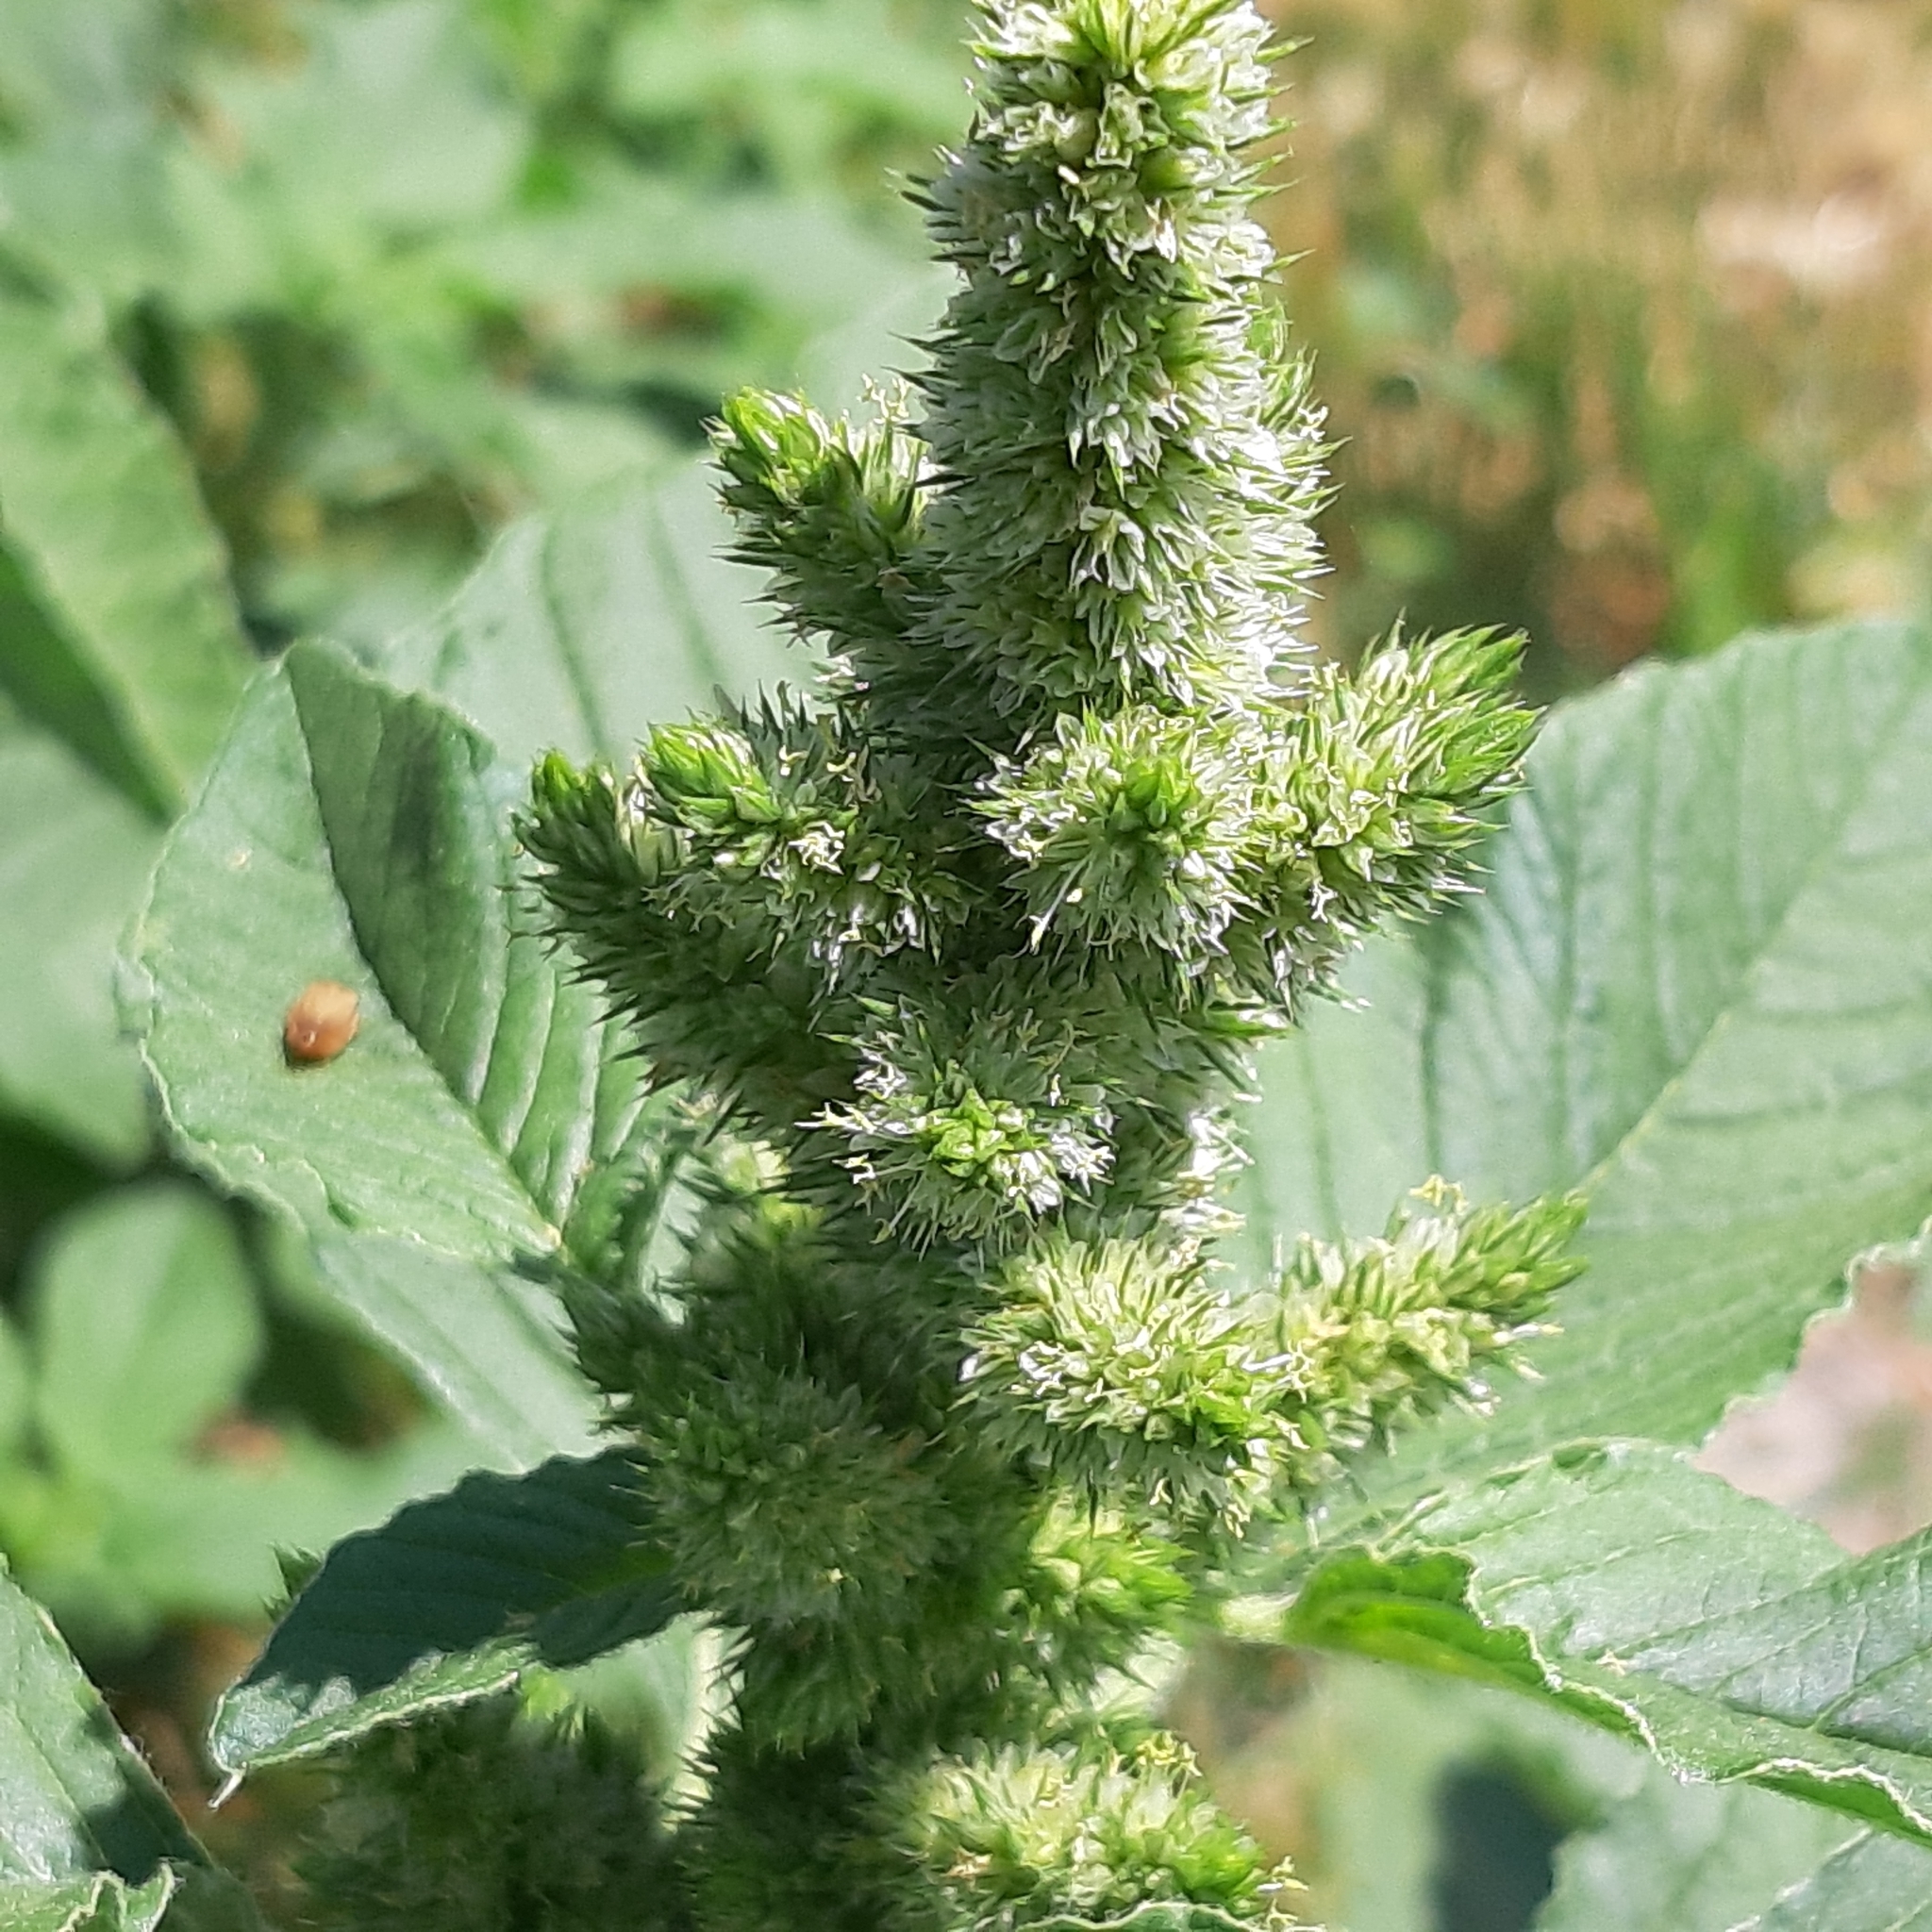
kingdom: Plantae
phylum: Tracheophyta
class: Magnoliopsida
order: Caryophyllales
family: Amaranthaceae
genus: Amaranthus
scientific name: Amaranthus retroflexus
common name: Redroot amaranth
